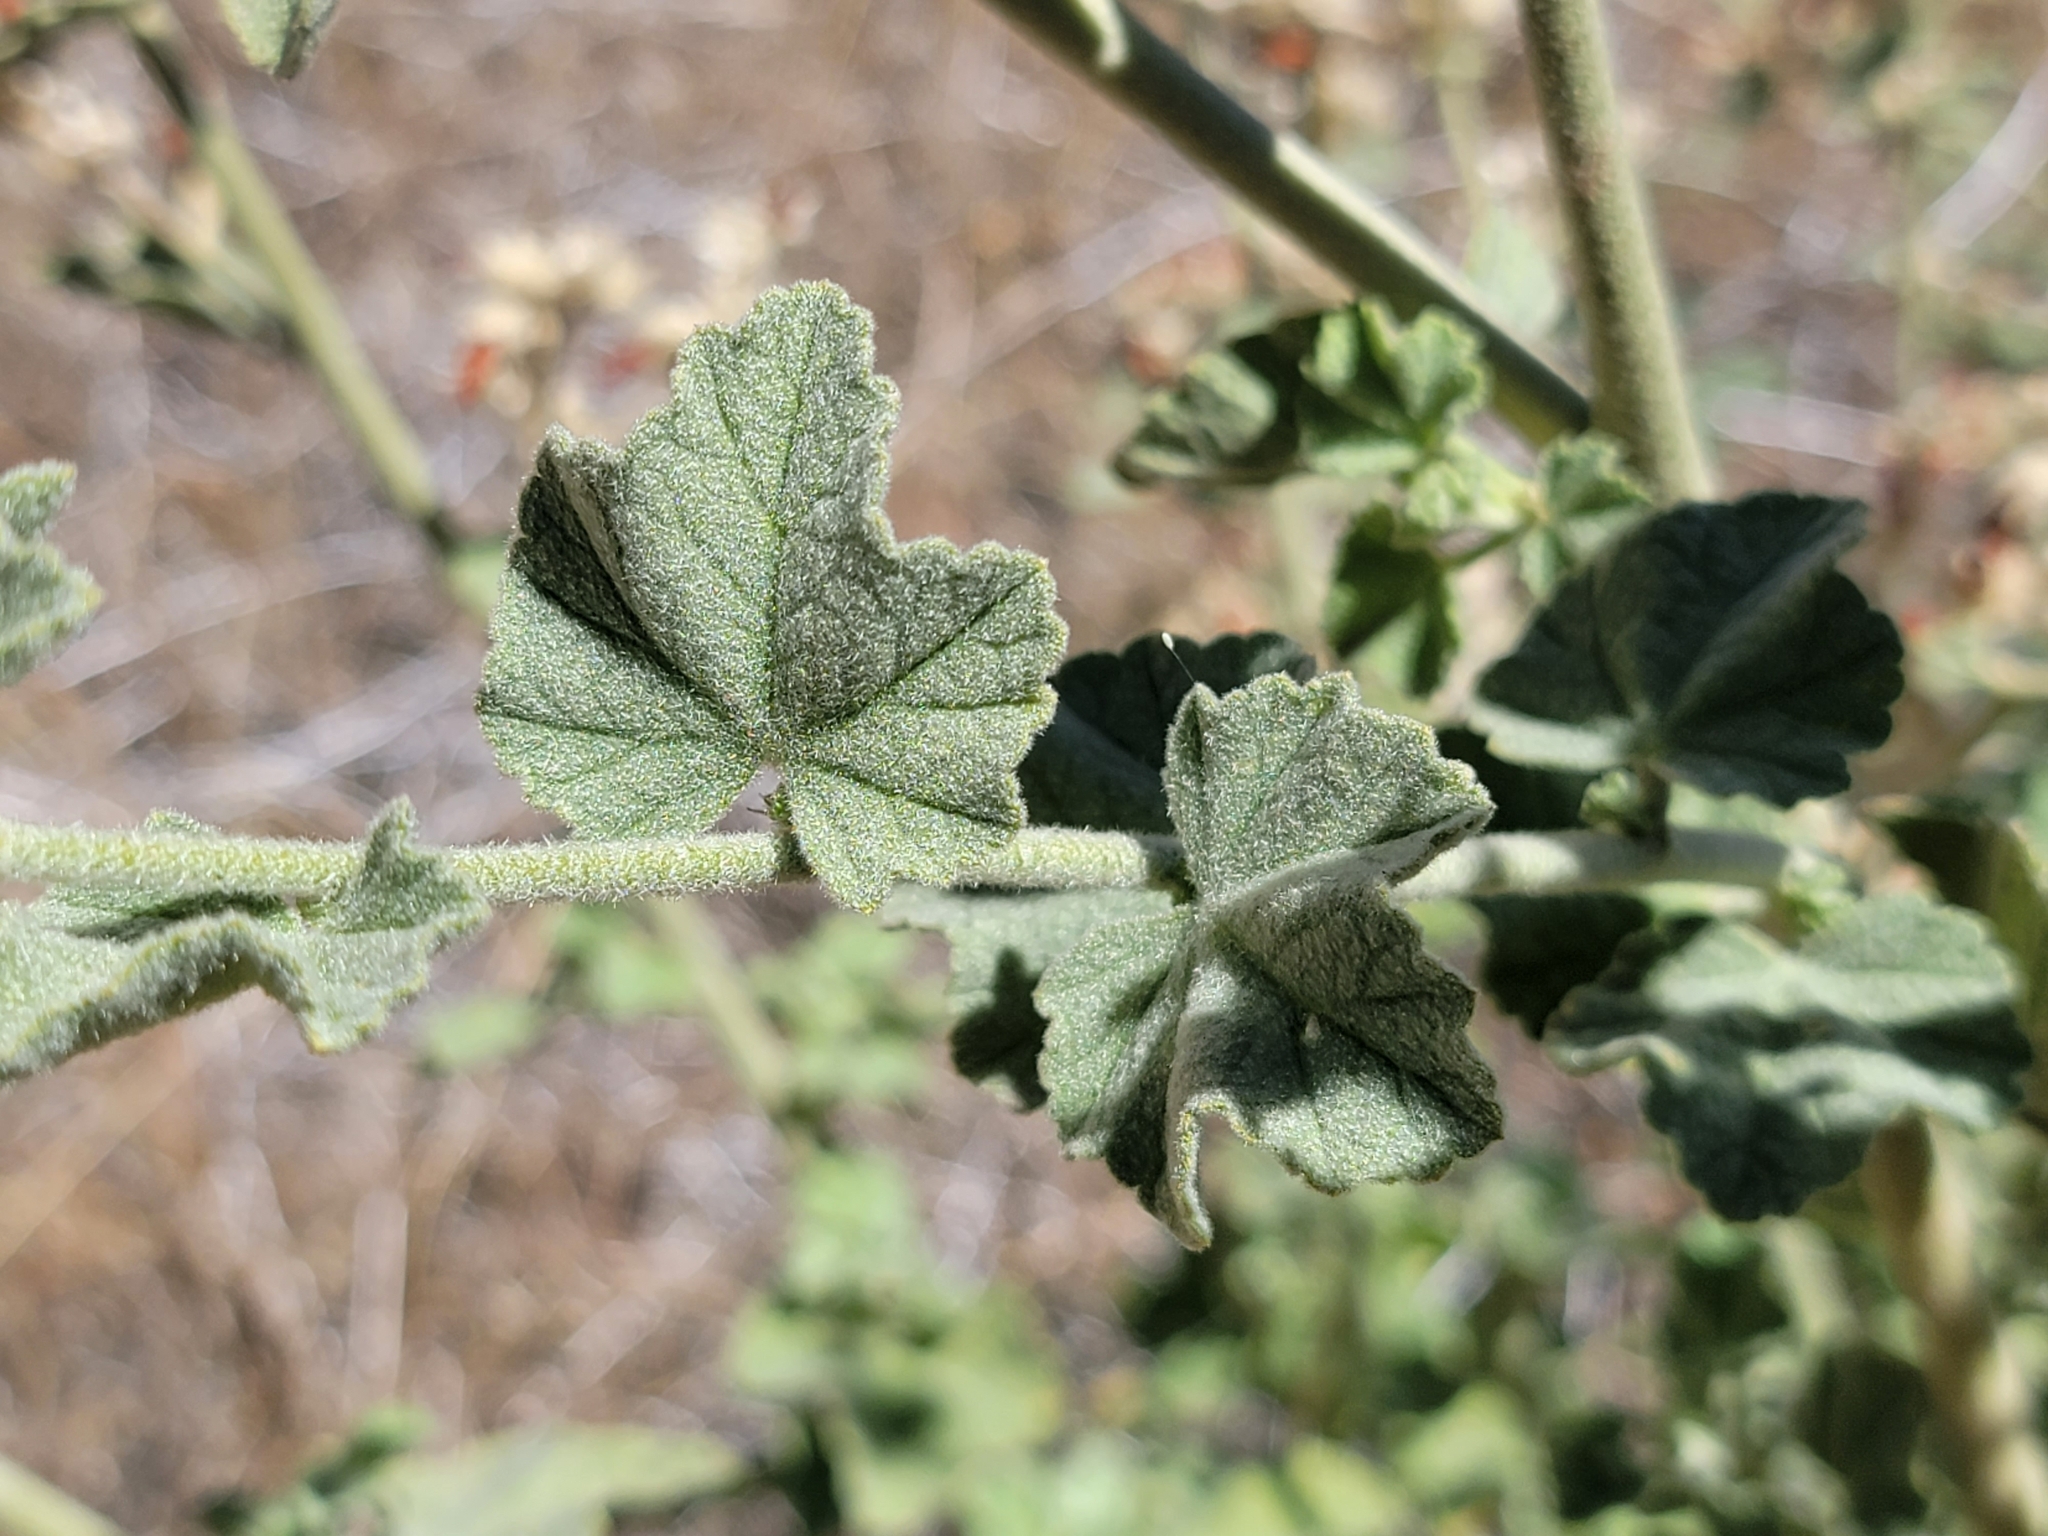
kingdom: Plantae
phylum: Tracheophyta
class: Magnoliopsida
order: Malvales
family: Malvaceae
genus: Malacothamnus
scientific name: Malacothamnus fremontii
